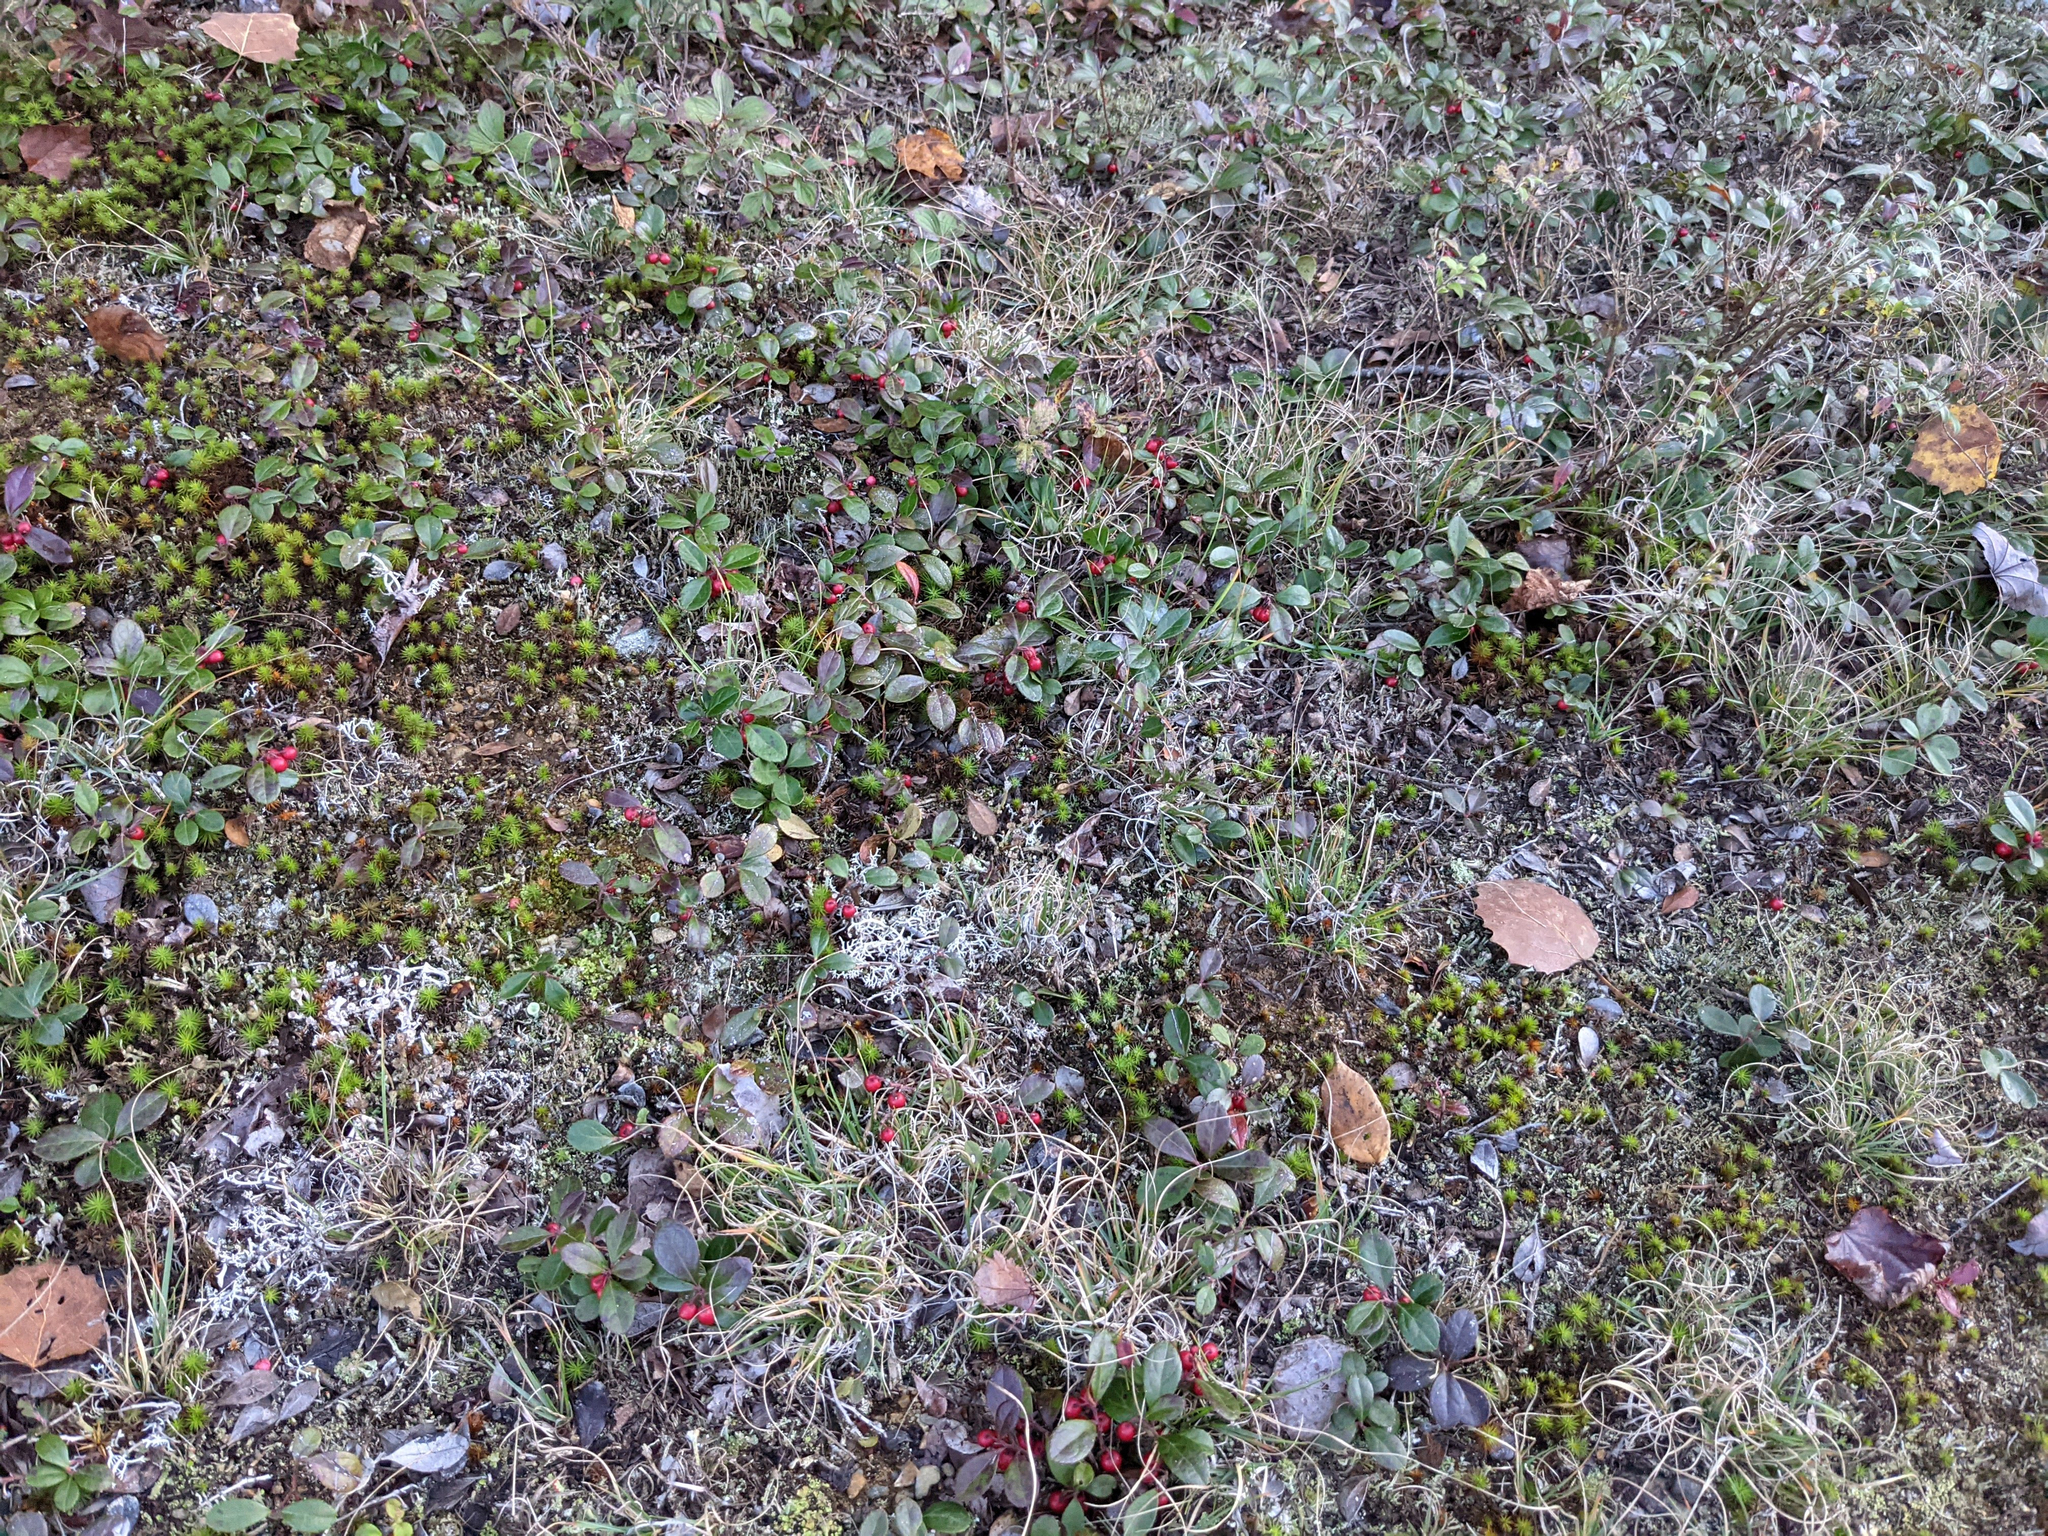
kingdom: Plantae
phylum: Tracheophyta
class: Magnoliopsida
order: Ericales
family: Ericaceae
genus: Gaultheria
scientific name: Gaultheria procumbens
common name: Checkerberry
